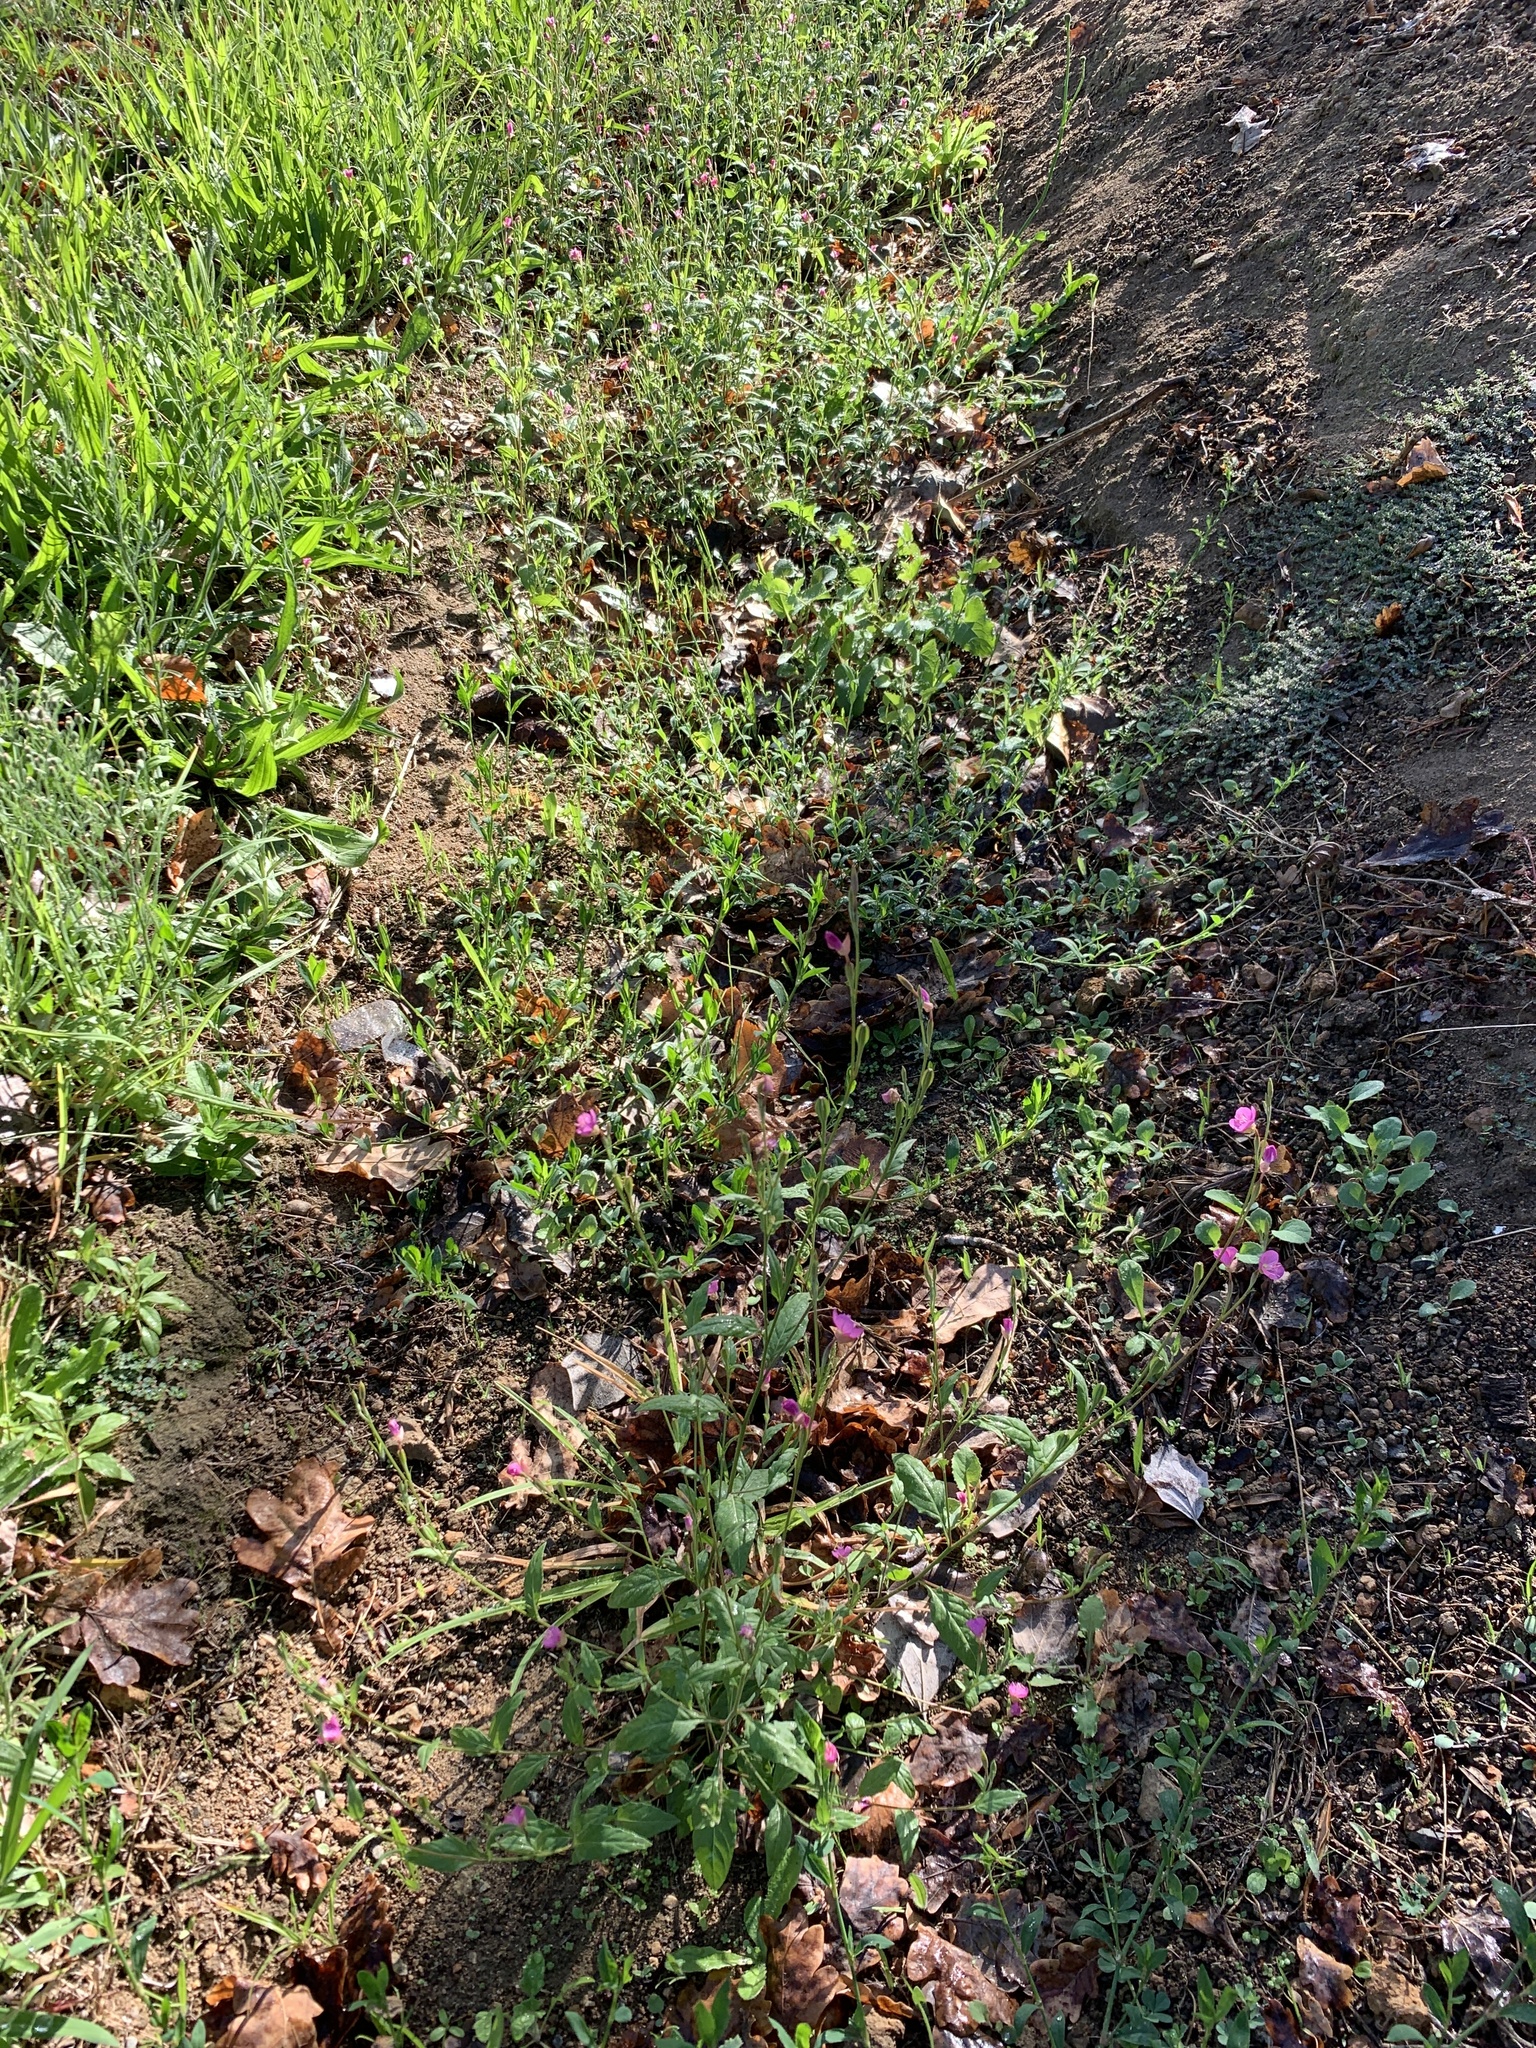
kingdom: Plantae
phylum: Tracheophyta
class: Magnoliopsida
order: Myrtales
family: Onagraceae
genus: Oenothera
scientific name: Oenothera rosea
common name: Rosy evening-primrose
